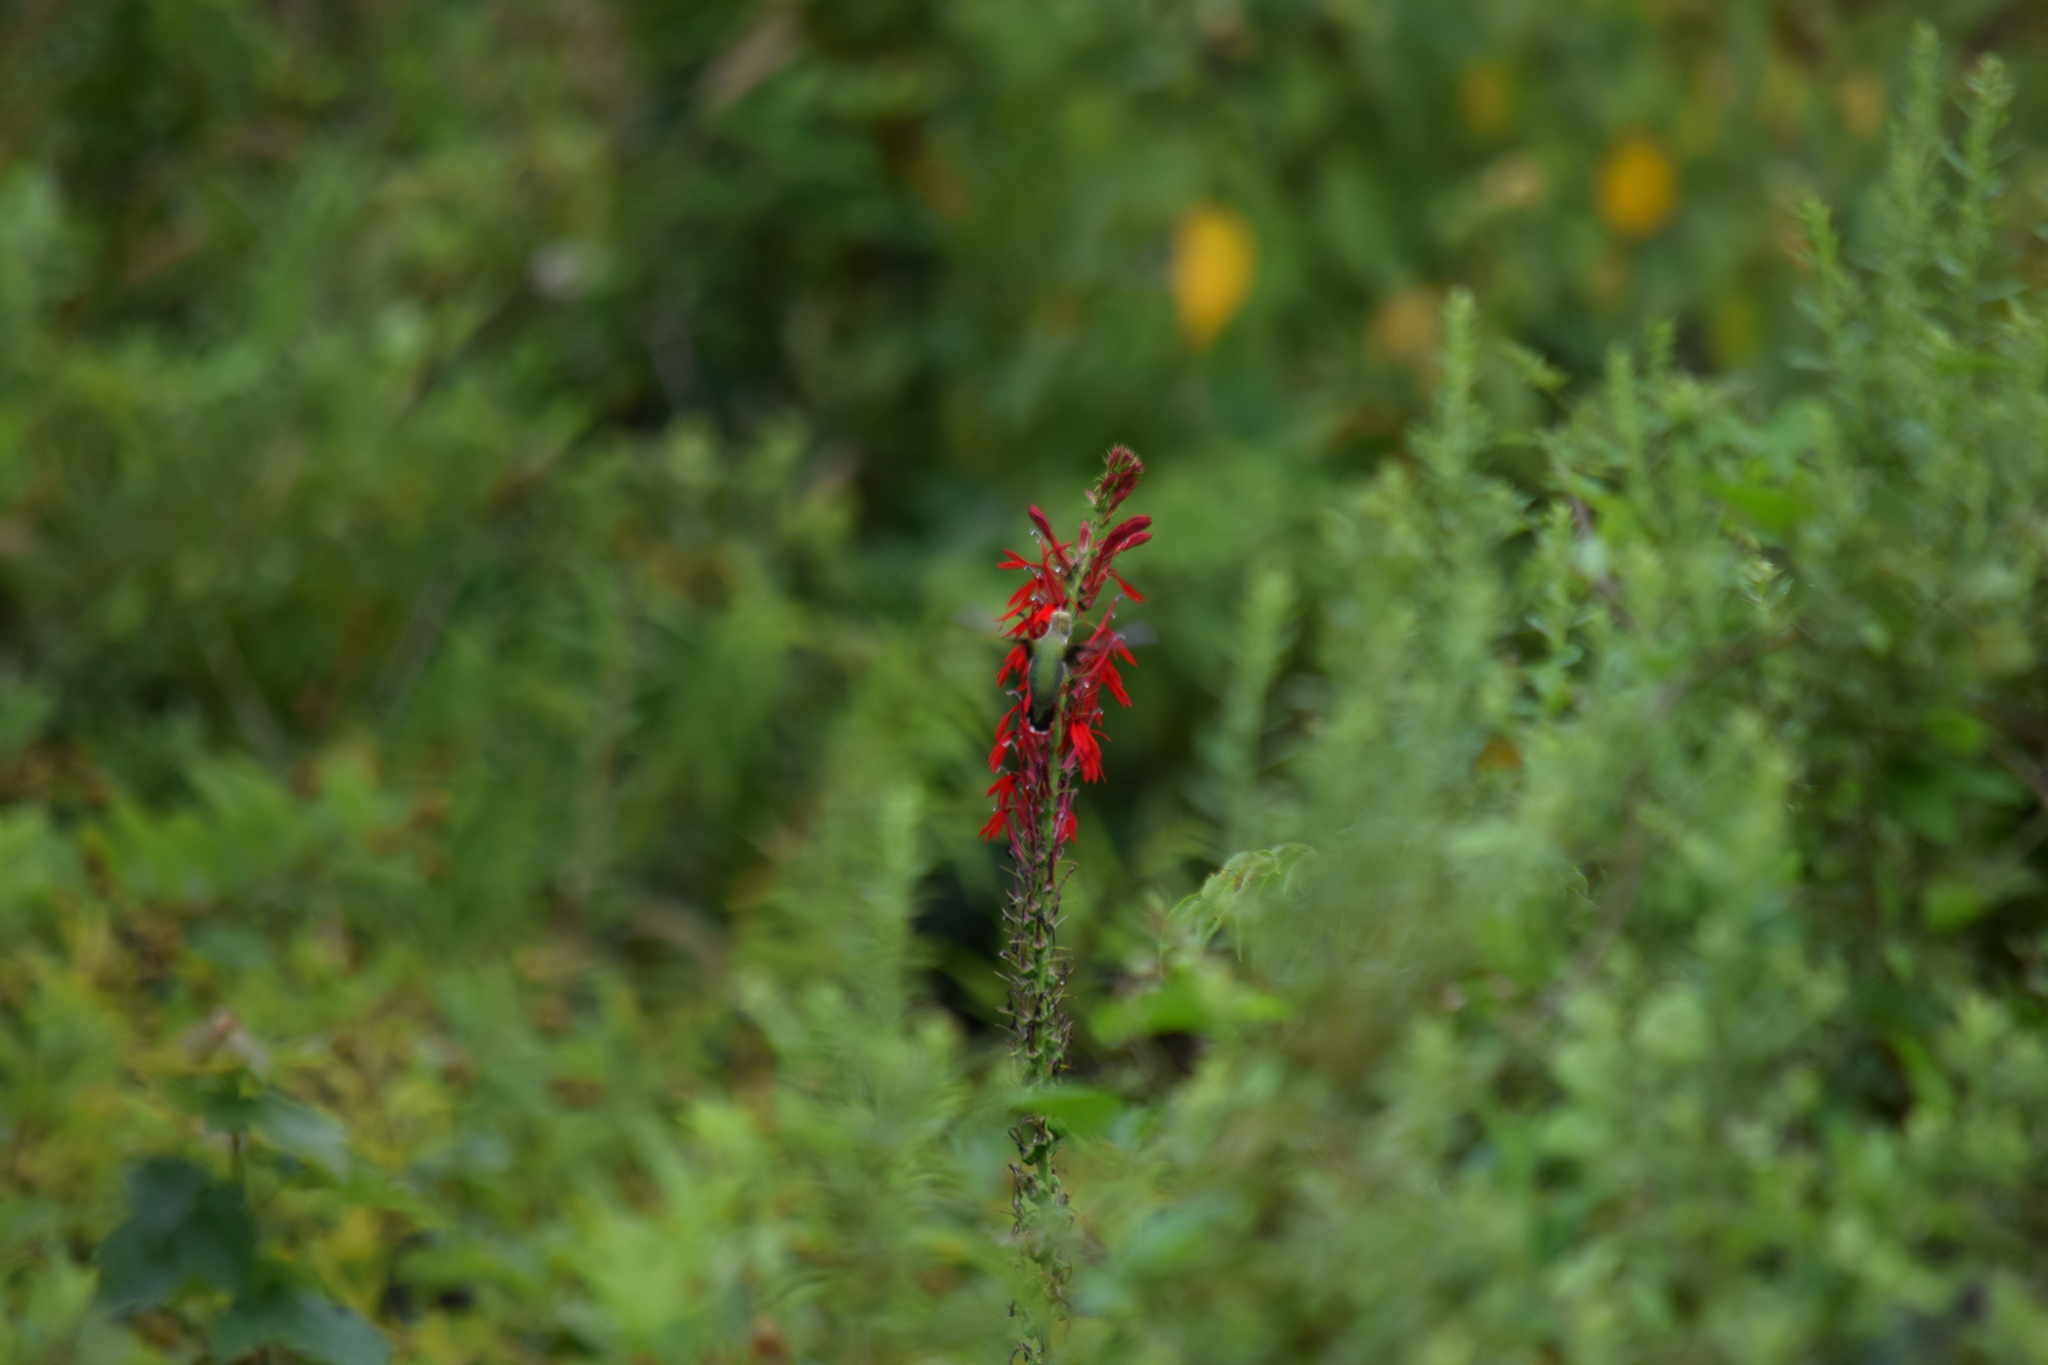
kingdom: Animalia
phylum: Chordata
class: Aves
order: Apodiformes
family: Trochilidae
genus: Archilochus
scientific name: Archilochus colubris
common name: Ruby-throated hummingbird
